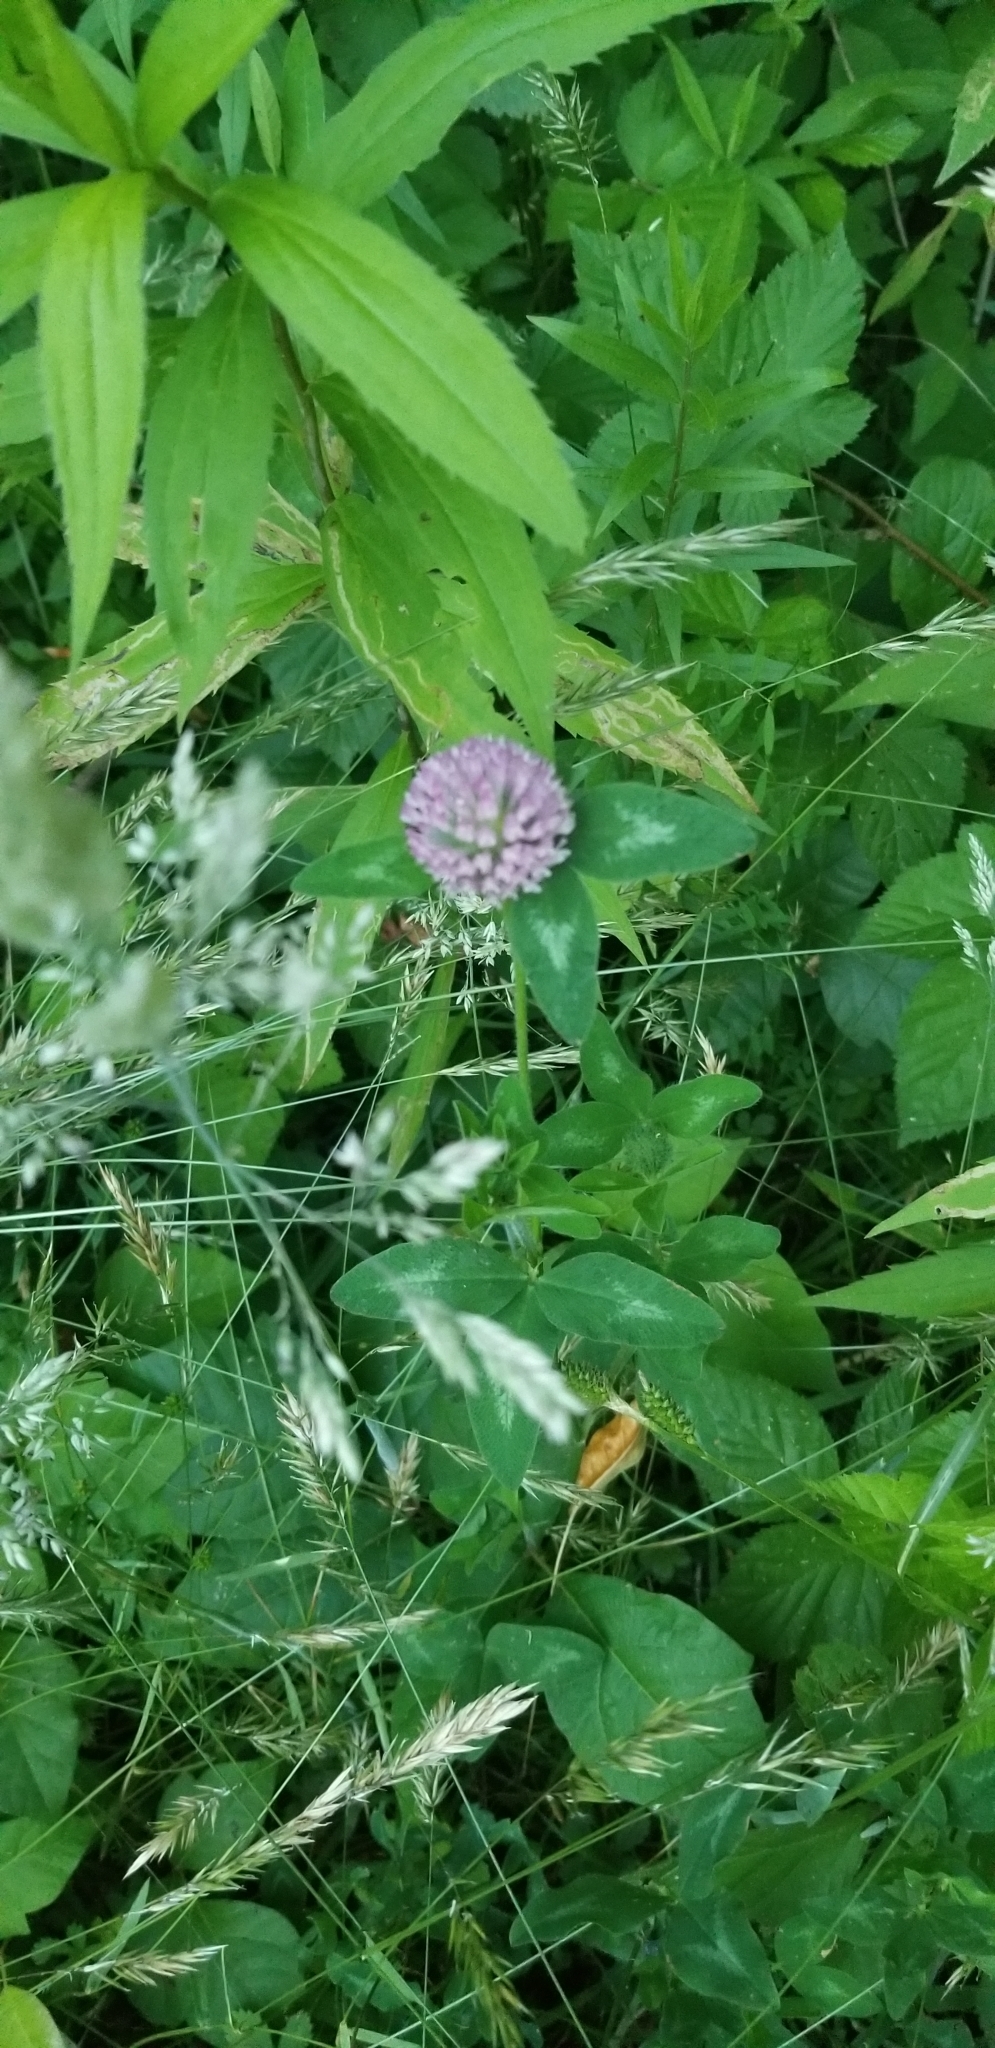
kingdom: Plantae
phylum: Tracheophyta
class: Magnoliopsida
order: Fabales
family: Fabaceae
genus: Trifolium
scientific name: Trifolium pratense
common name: Red clover
